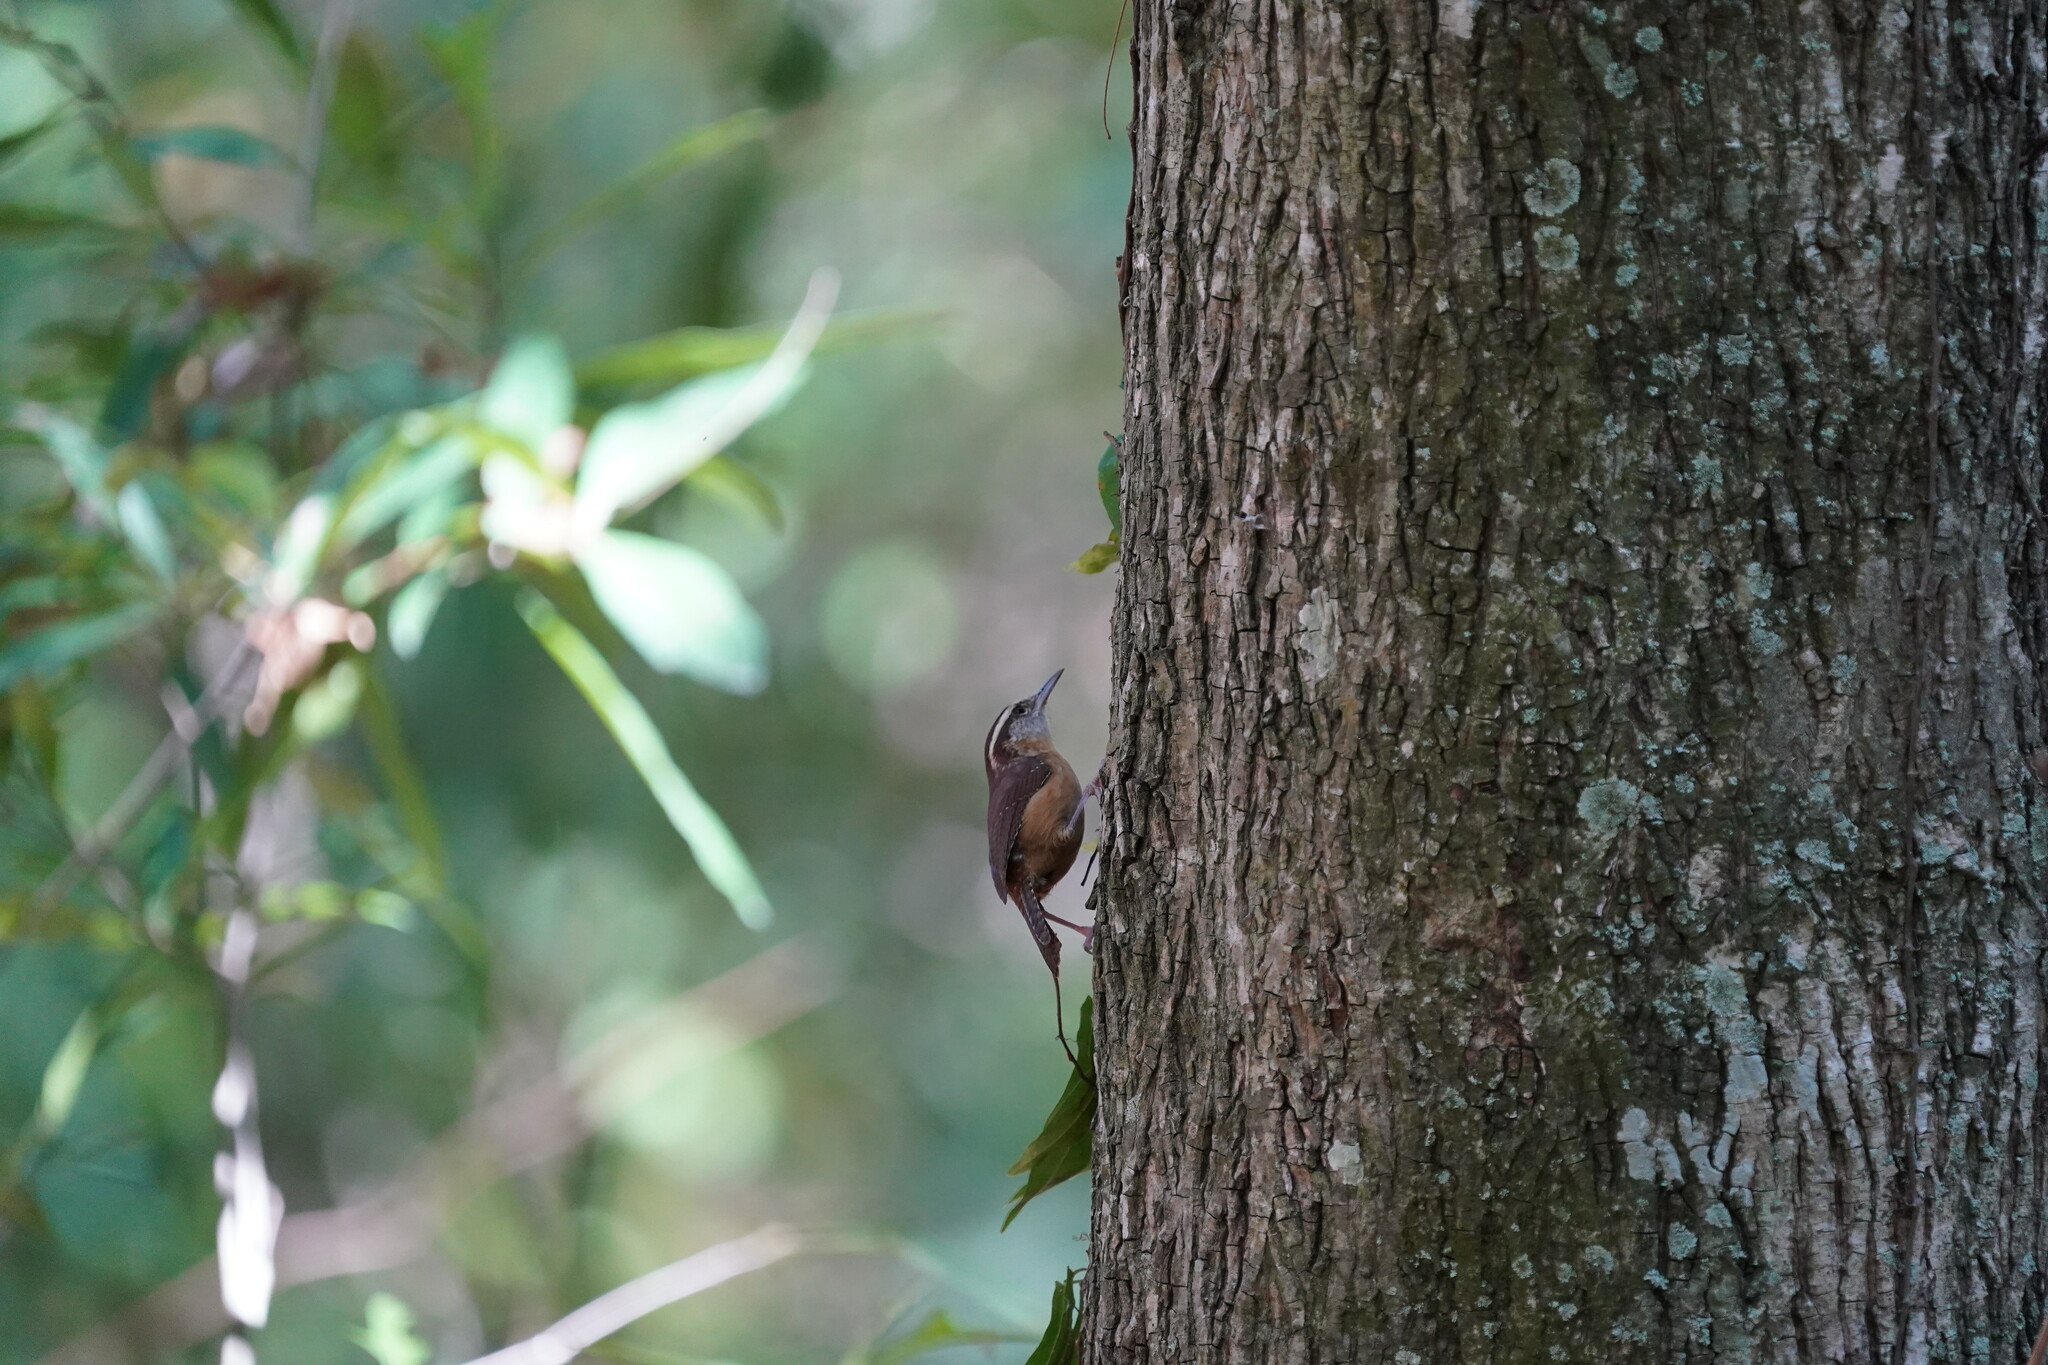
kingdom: Animalia
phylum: Chordata
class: Aves
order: Passeriformes
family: Troglodytidae
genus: Thryothorus
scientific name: Thryothorus ludovicianus
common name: Carolina wren
